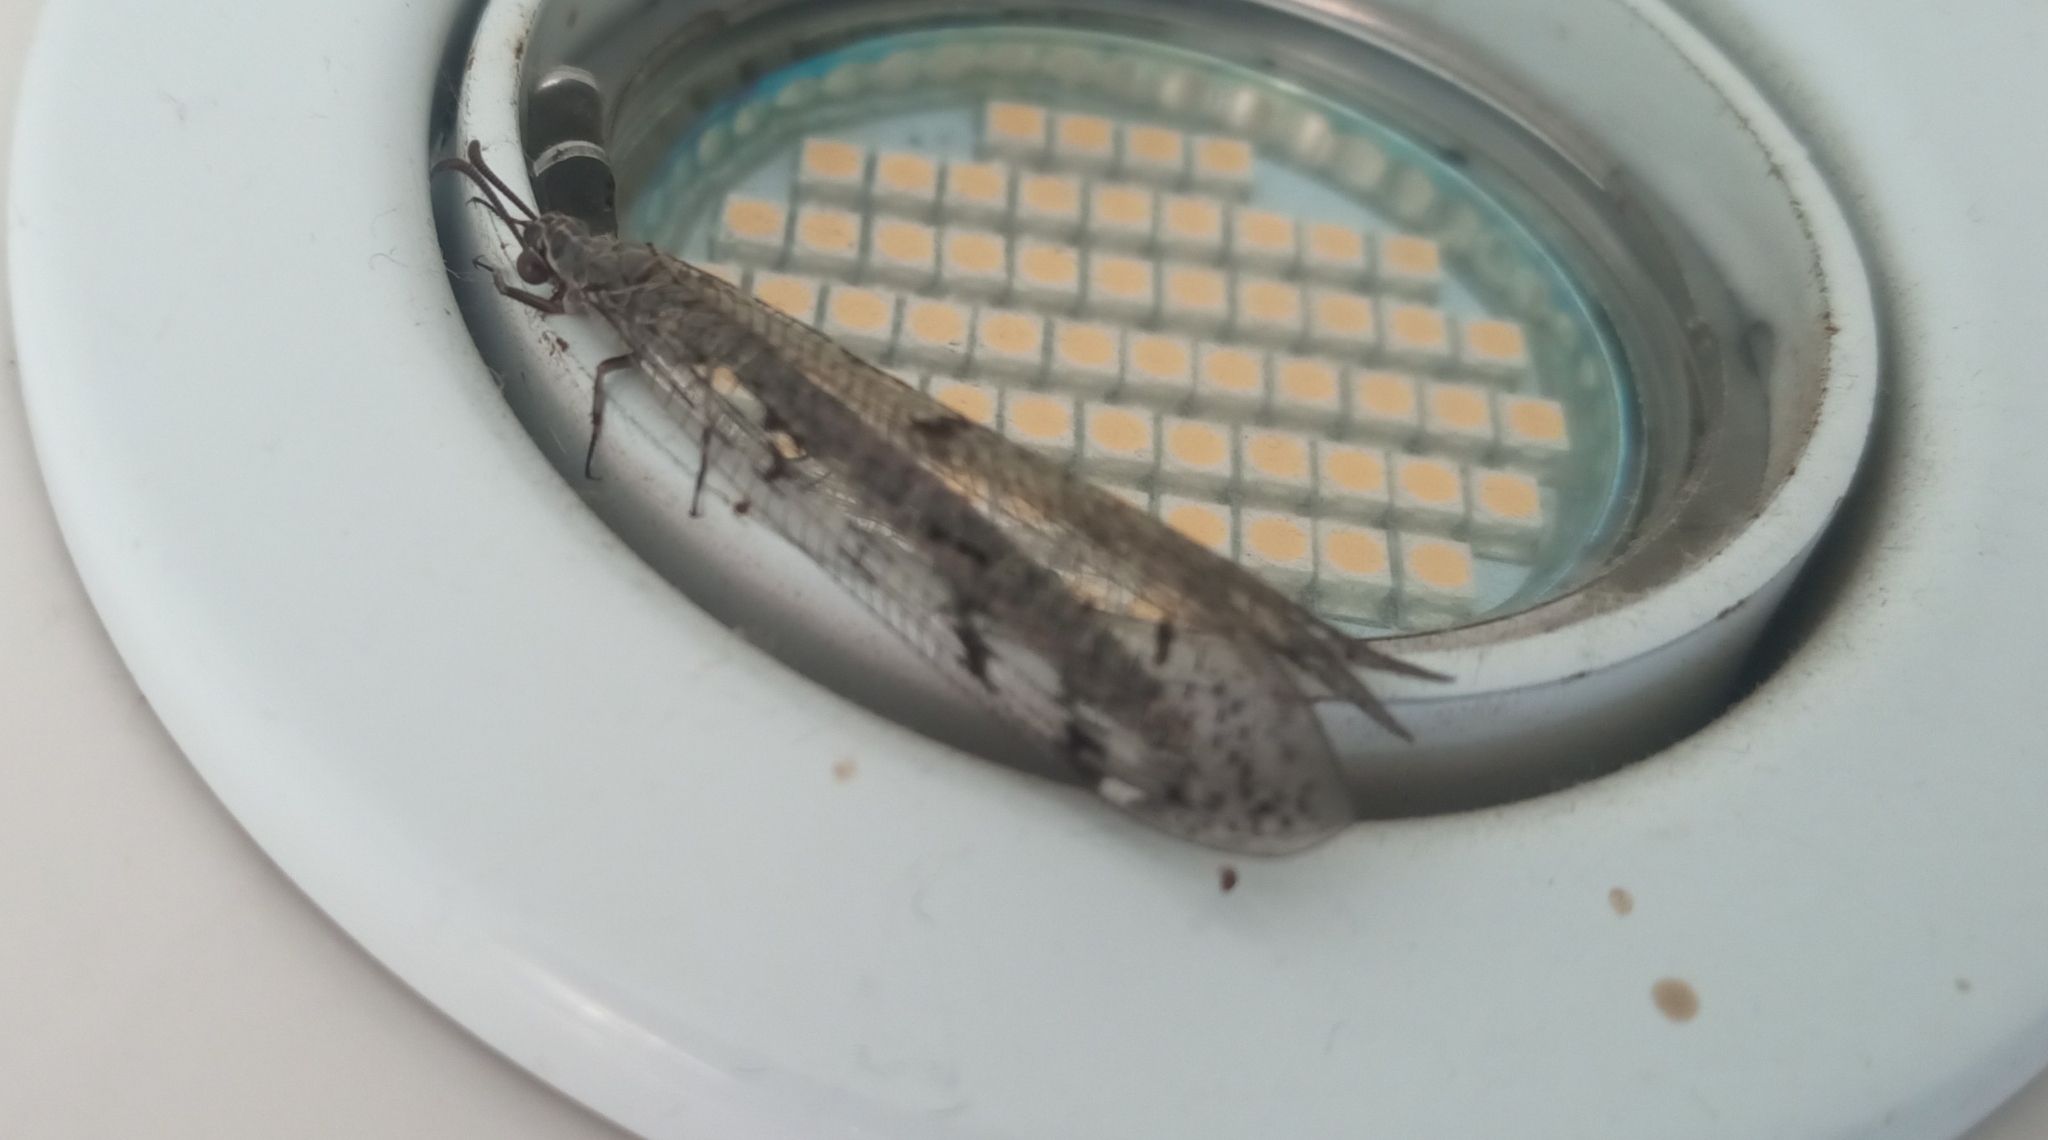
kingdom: Animalia
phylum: Arthropoda
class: Insecta
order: Neuroptera
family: Myrmeleontidae
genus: Euroleon
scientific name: Euroleon nostras
